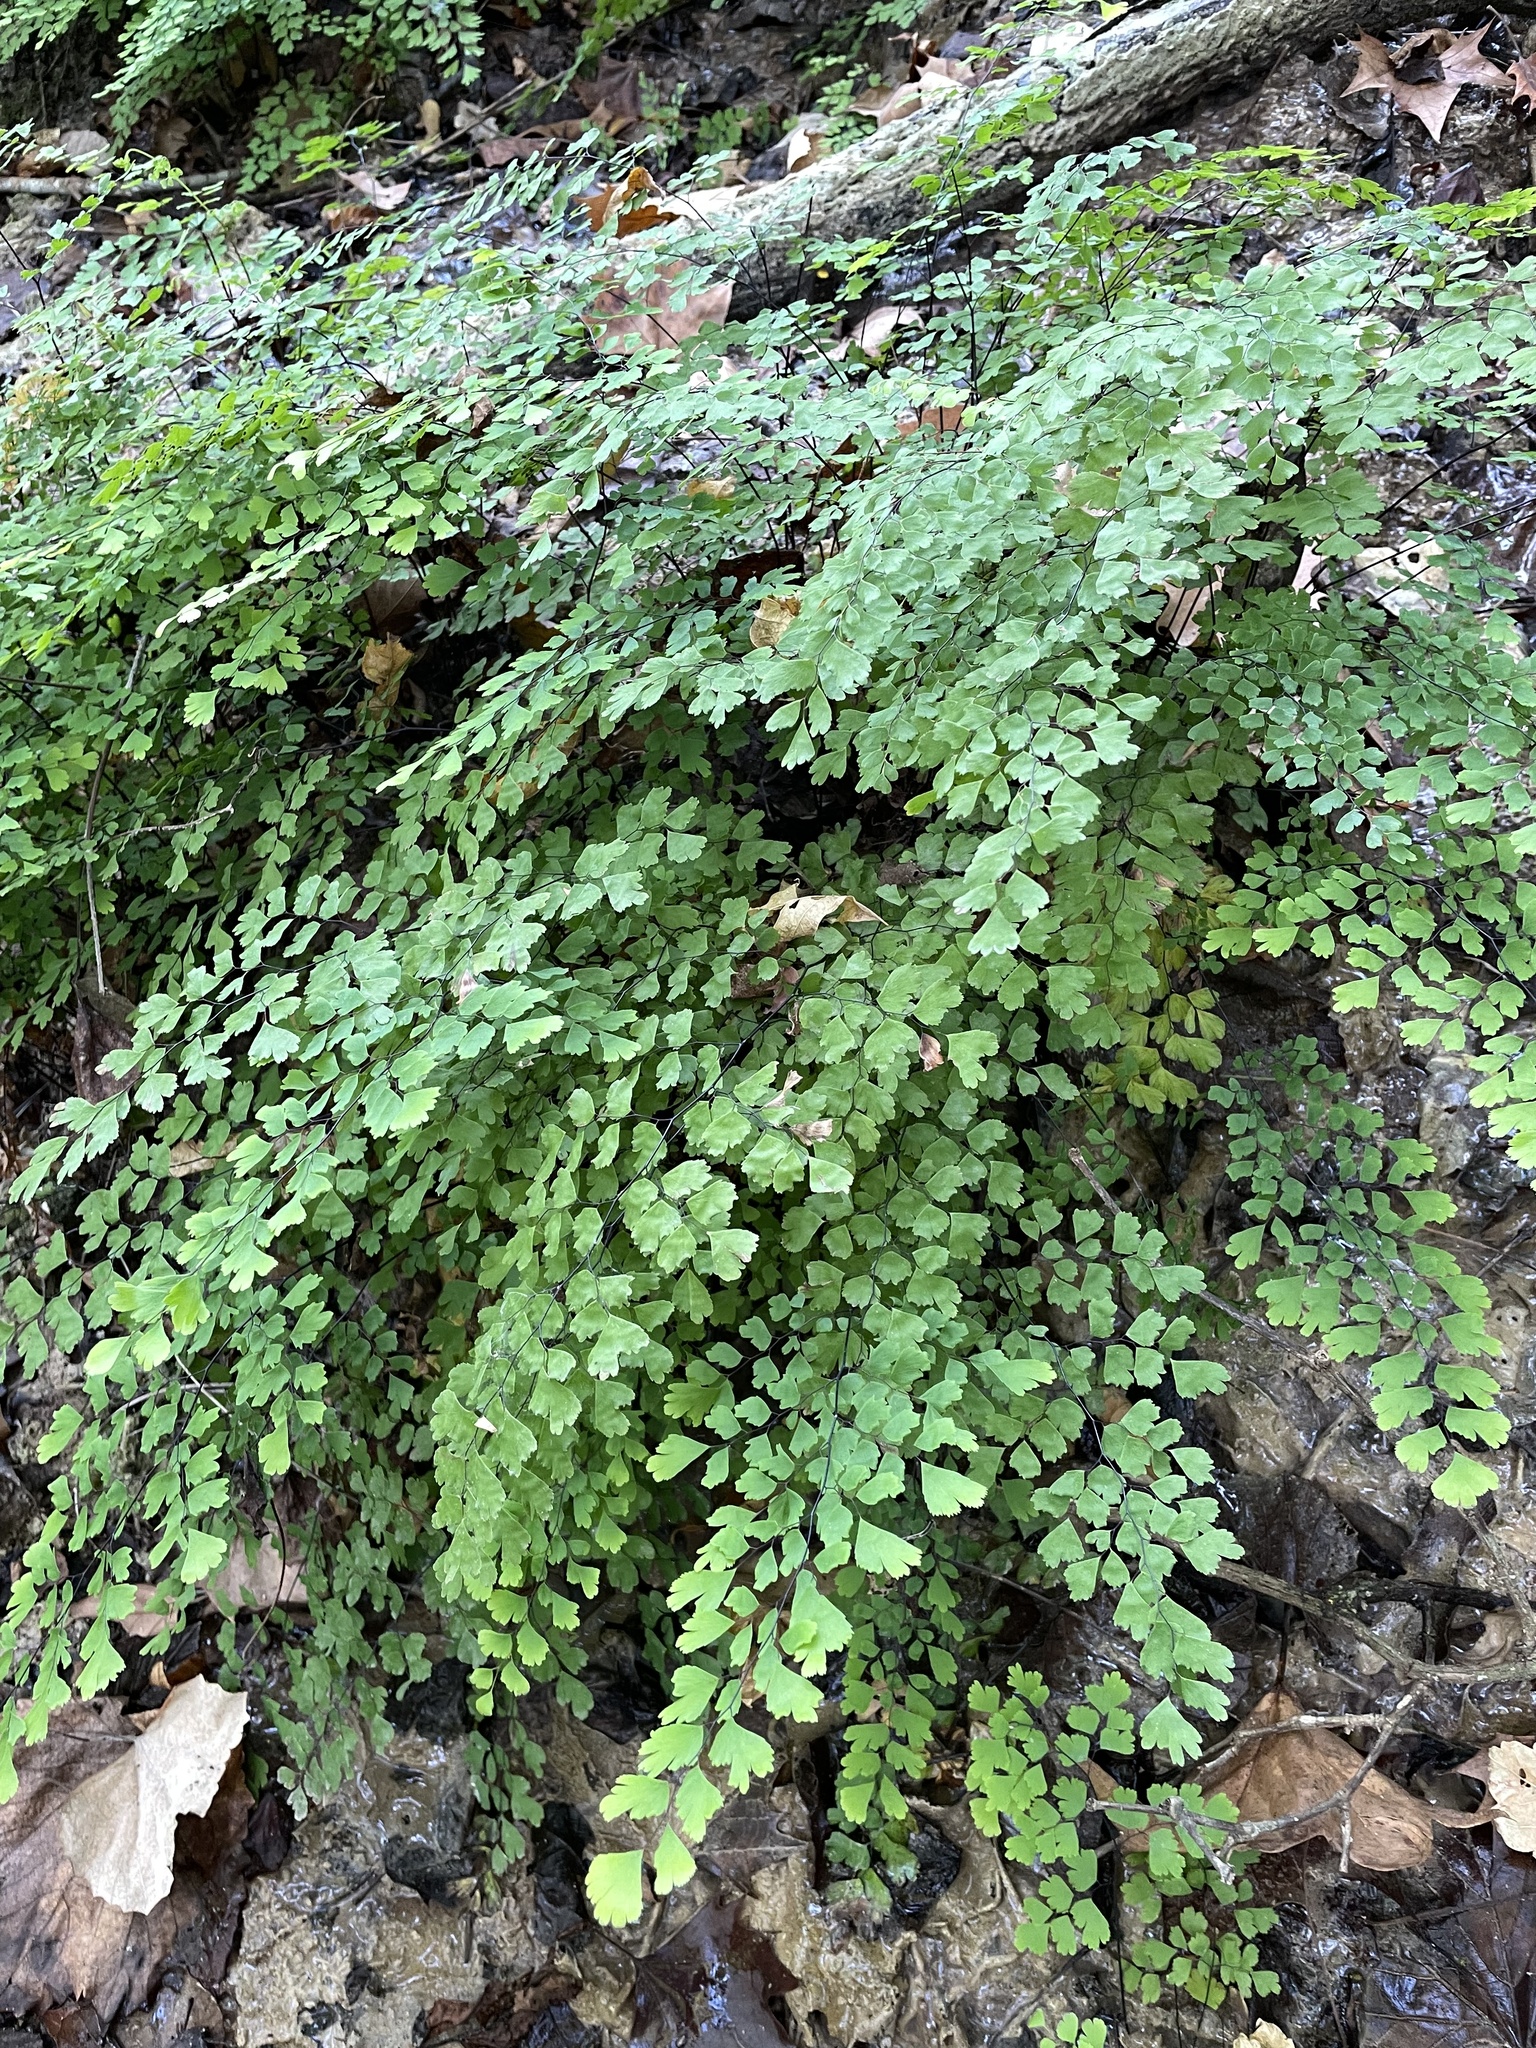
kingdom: Plantae
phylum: Tracheophyta
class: Polypodiopsida
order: Polypodiales
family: Pteridaceae
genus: Adiantum
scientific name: Adiantum capillus-veneris
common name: Maidenhair fern
